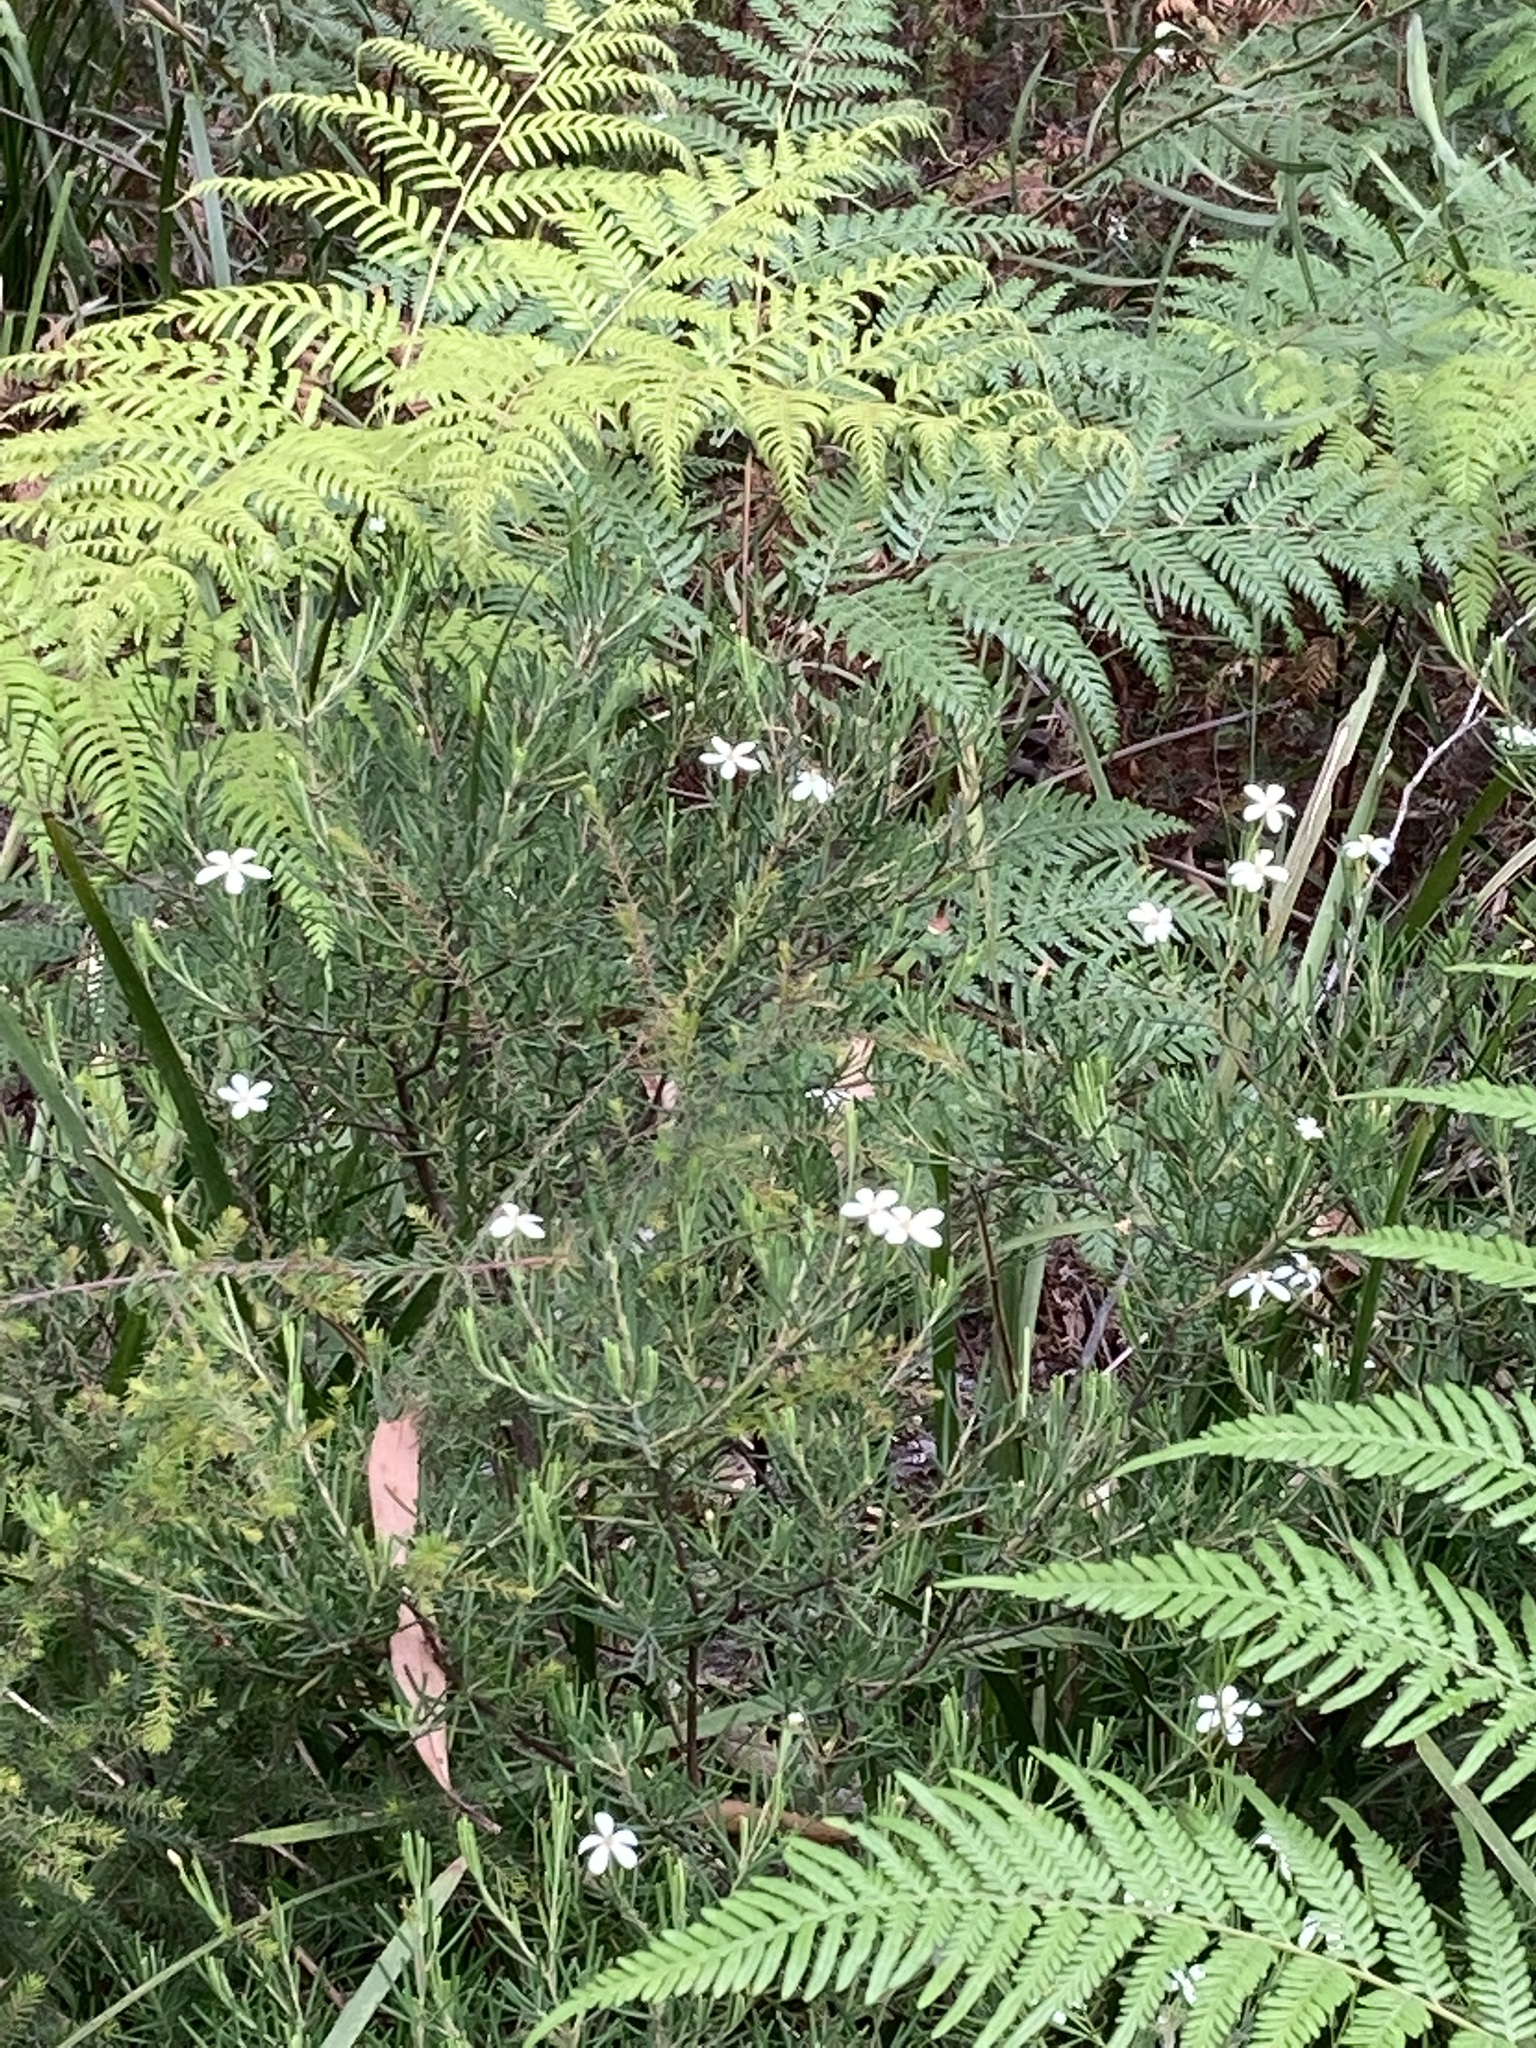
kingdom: Plantae
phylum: Tracheophyta
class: Magnoliopsida
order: Malpighiales
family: Euphorbiaceae
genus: Ricinocarpos
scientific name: Ricinocarpos pinifolius
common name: Weddingbush
